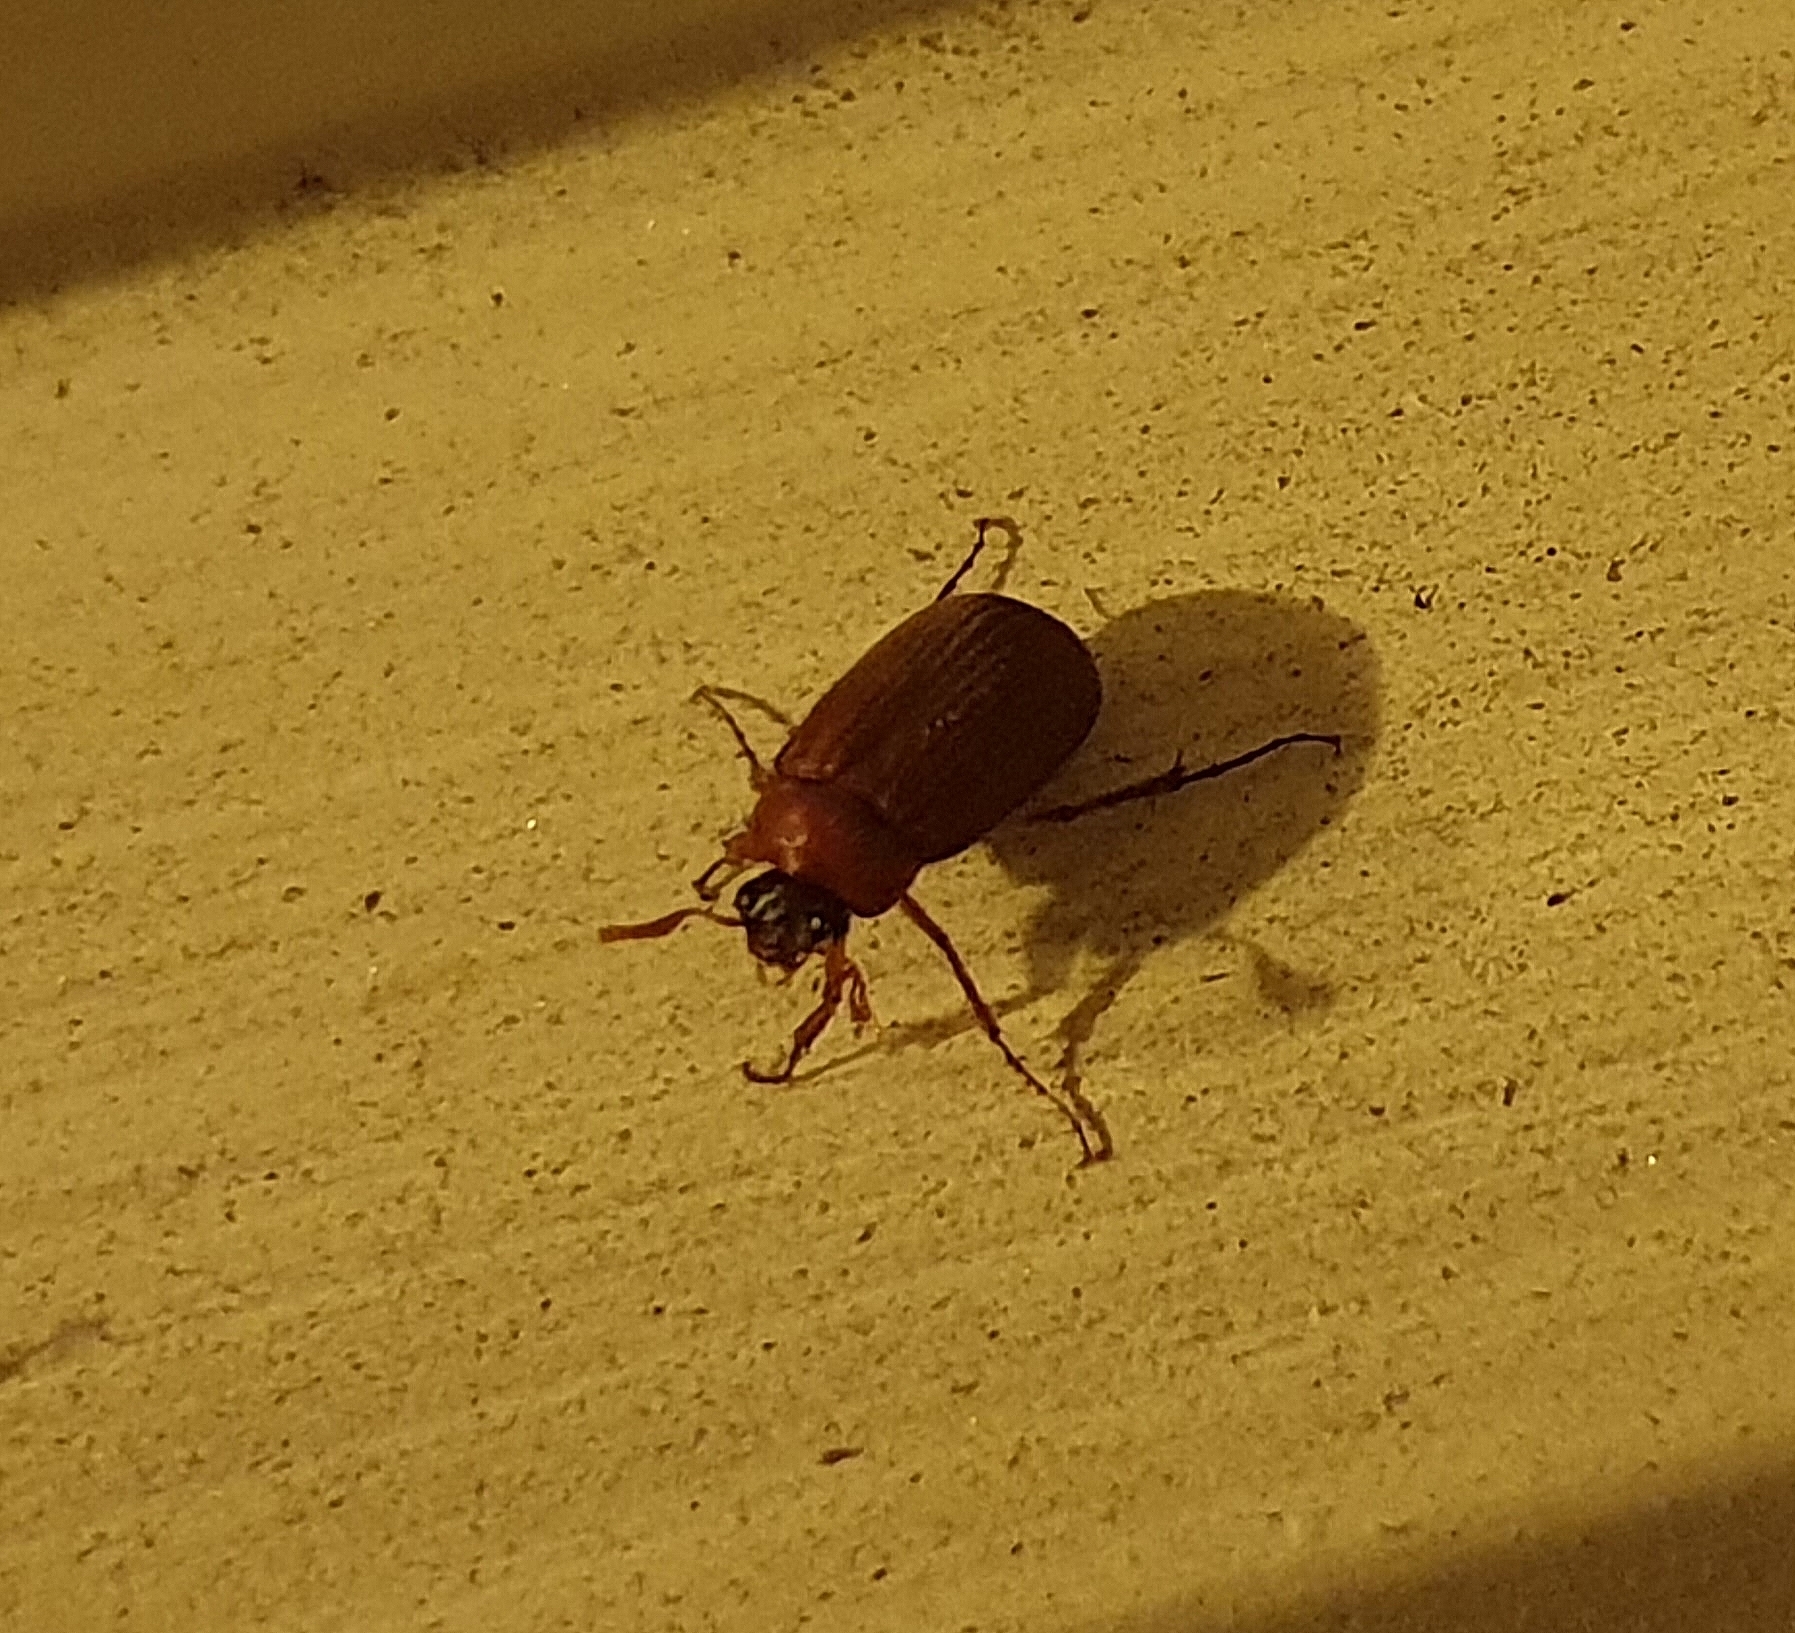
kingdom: Animalia
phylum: Arthropoda
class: Insecta
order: Coleoptera
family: Scarabaeidae
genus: Serica
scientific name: Serica brunnea
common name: Brown chafer
